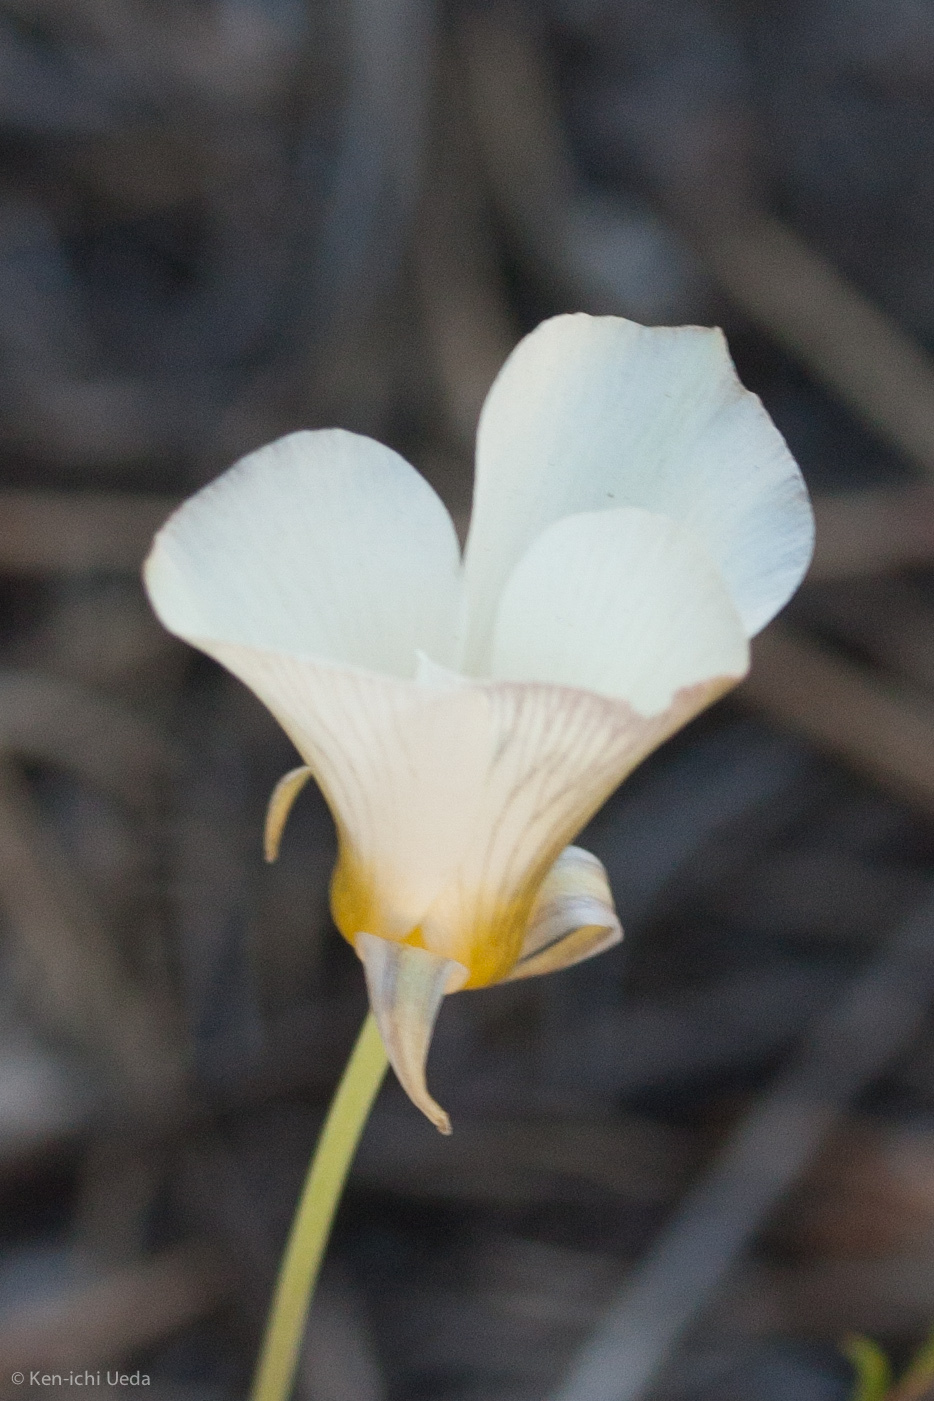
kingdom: Plantae
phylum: Tracheophyta
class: Liliopsida
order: Liliales
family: Liliaceae
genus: Calochortus
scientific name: Calochortus leichtlinii
